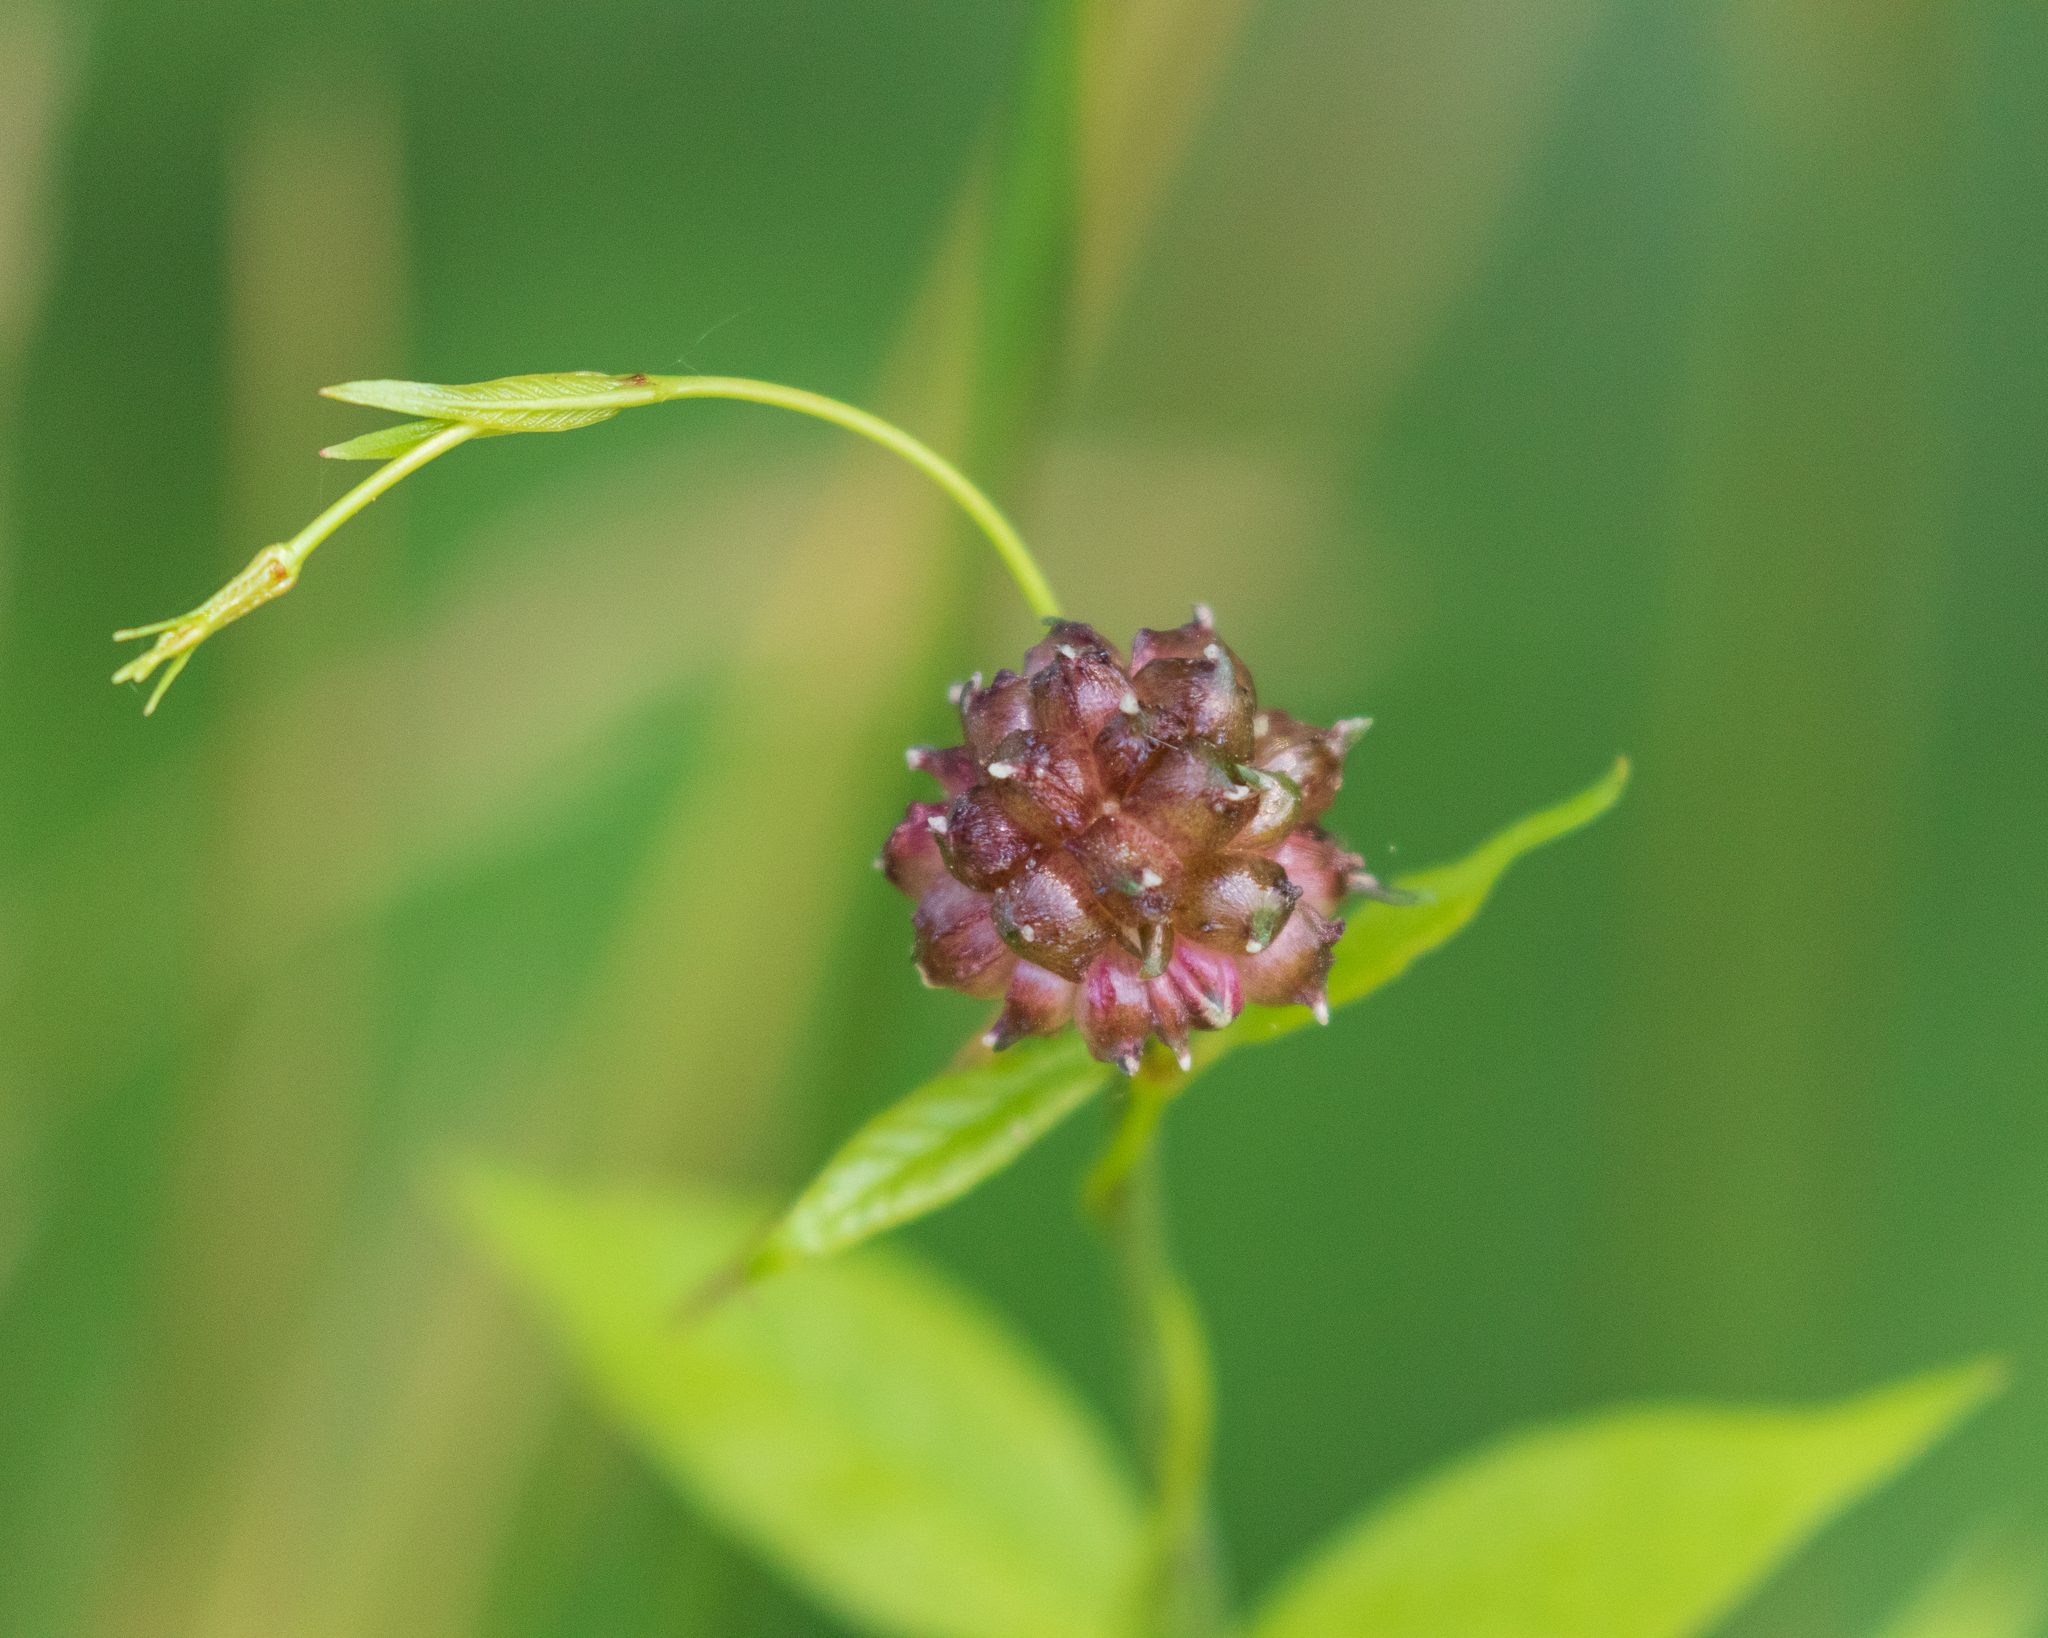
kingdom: Plantae
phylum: Tracheophyta
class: Liliopsida
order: Asparagales
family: Amaryllidaceae
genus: Allium
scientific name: Allium vineale
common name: Crow garlic
